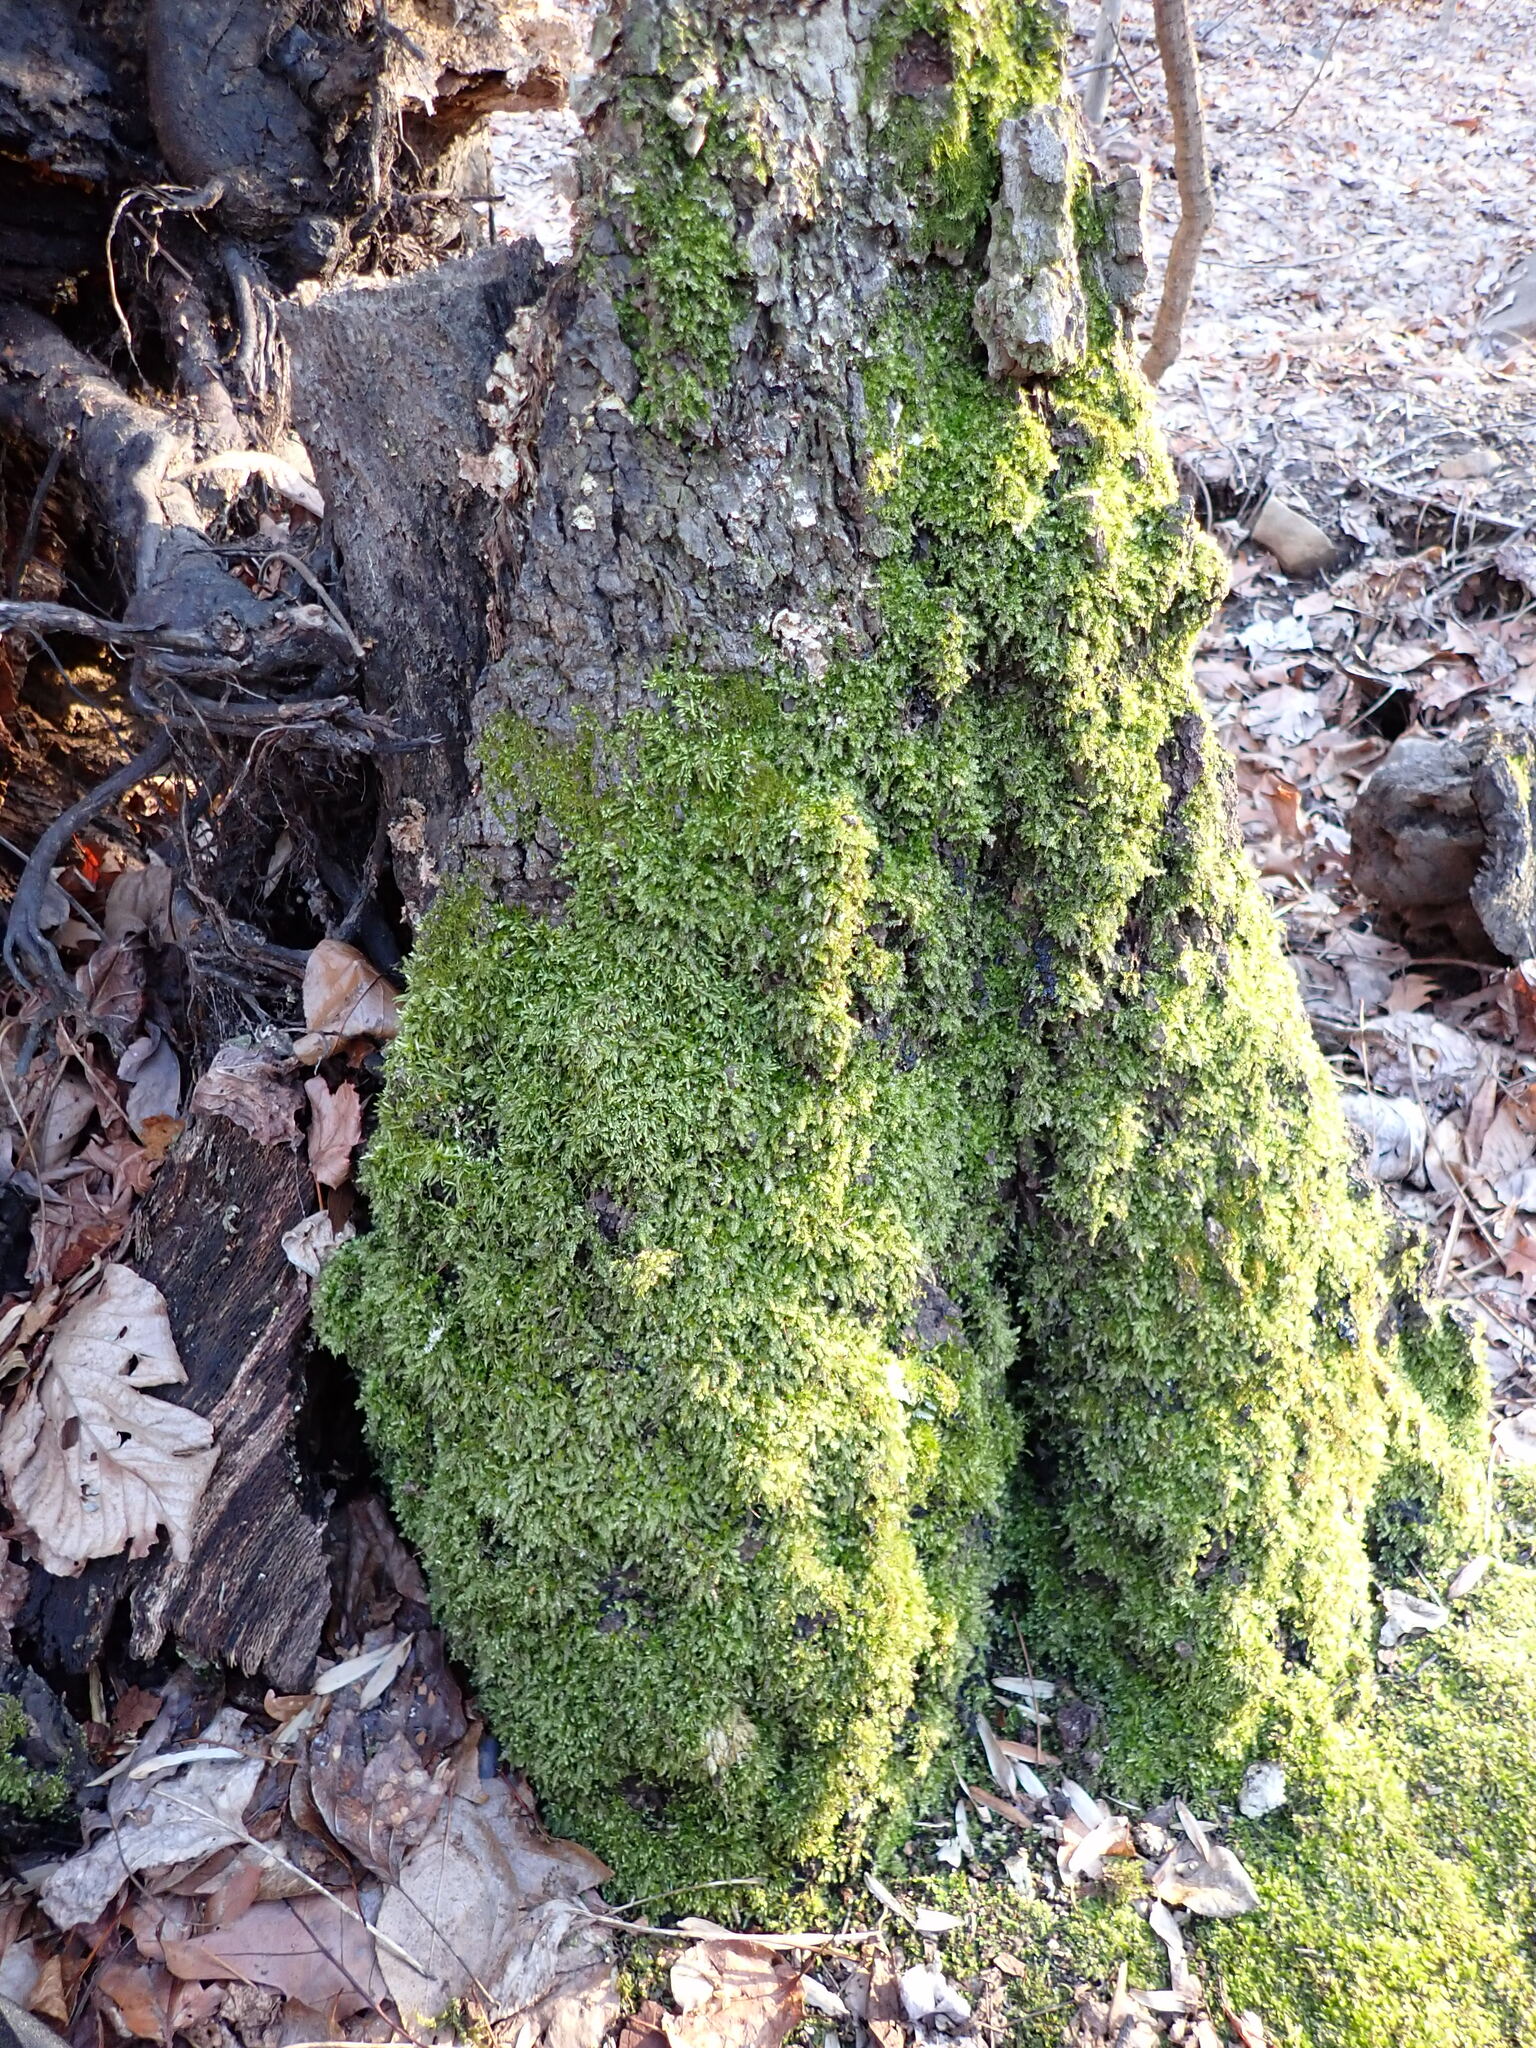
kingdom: Plantae
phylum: Bryophyta
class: Bryopsida
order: Hypnales
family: Plagiotheciaceae
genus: Pseudotaxiphyllum
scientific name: Pseudotaxiphyllum elegans
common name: Elegant silk moss
